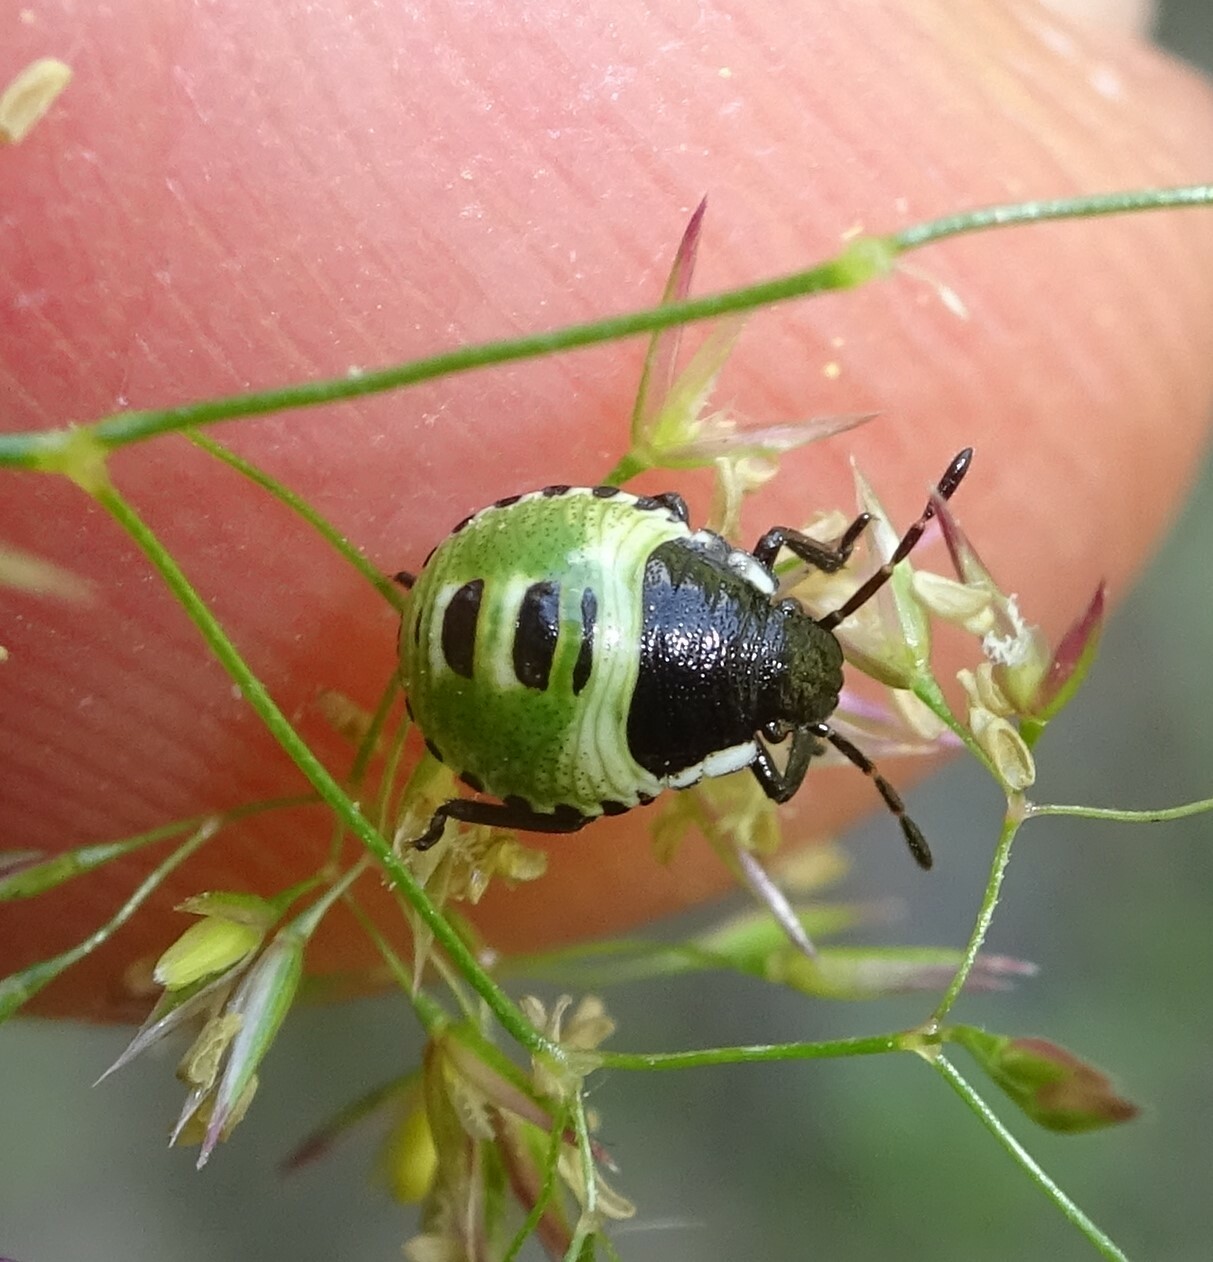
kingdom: Animalia
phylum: Arthropoda
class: Insecta
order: Hemiptera
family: Pentatomidae
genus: Palomena
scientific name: Palomena prasina
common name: Green shieldbug
